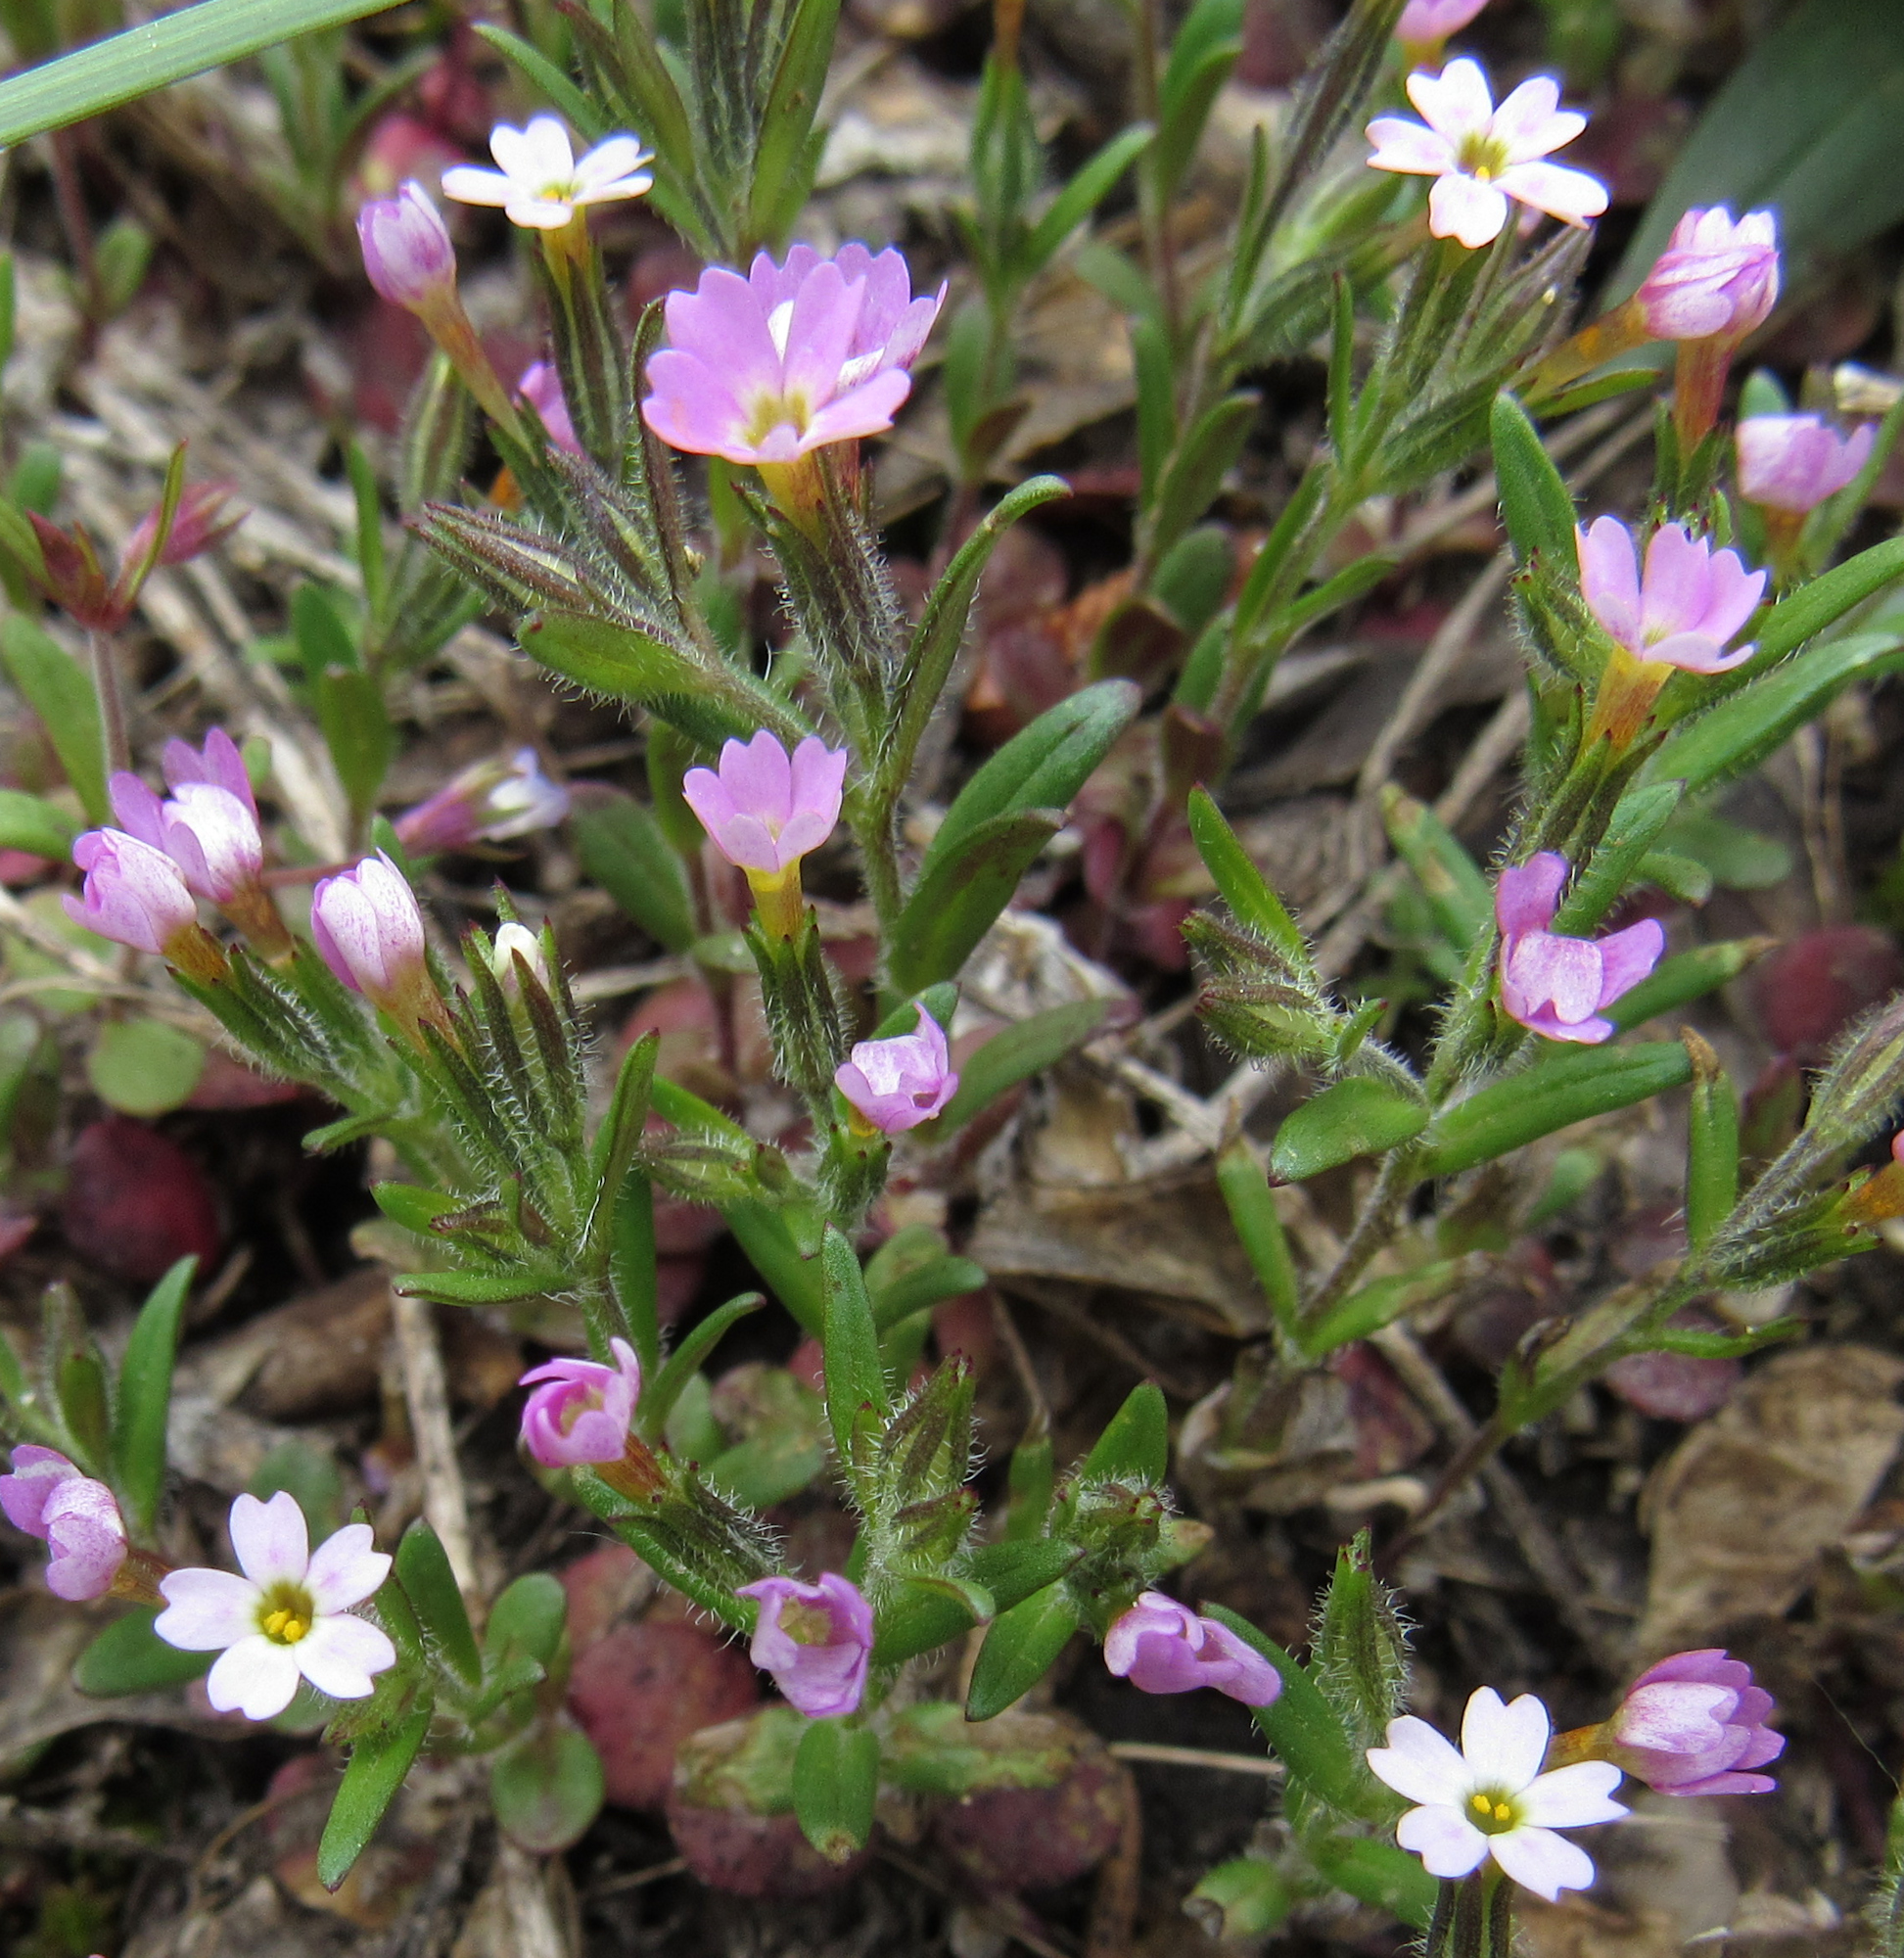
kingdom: Plantae
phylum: Tracheophyta
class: Magnoliopsida
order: Ericales
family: Polemoniaceae
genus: Phlox
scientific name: Phlox gracilis
